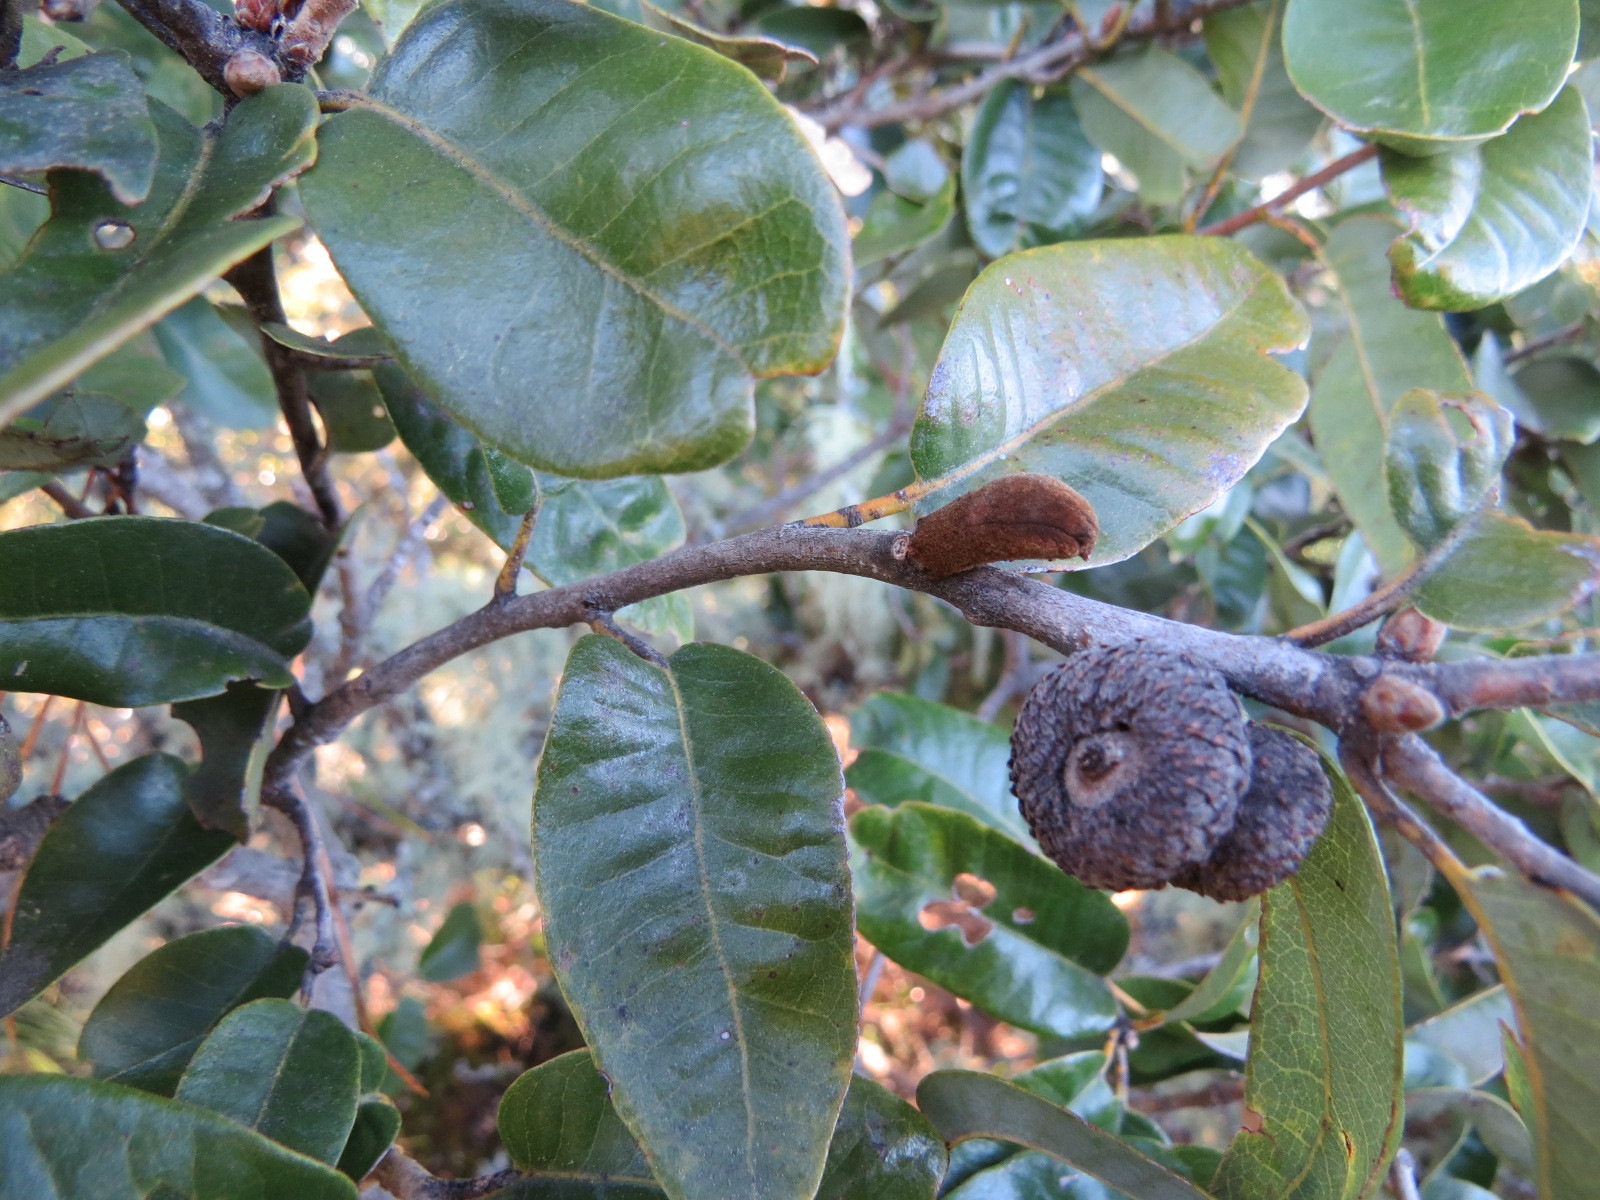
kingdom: Animalia
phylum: Arthropoda
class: Insecta
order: Hymenoptera
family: Cynipidae
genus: Heteroecus
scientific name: Heteroecus
